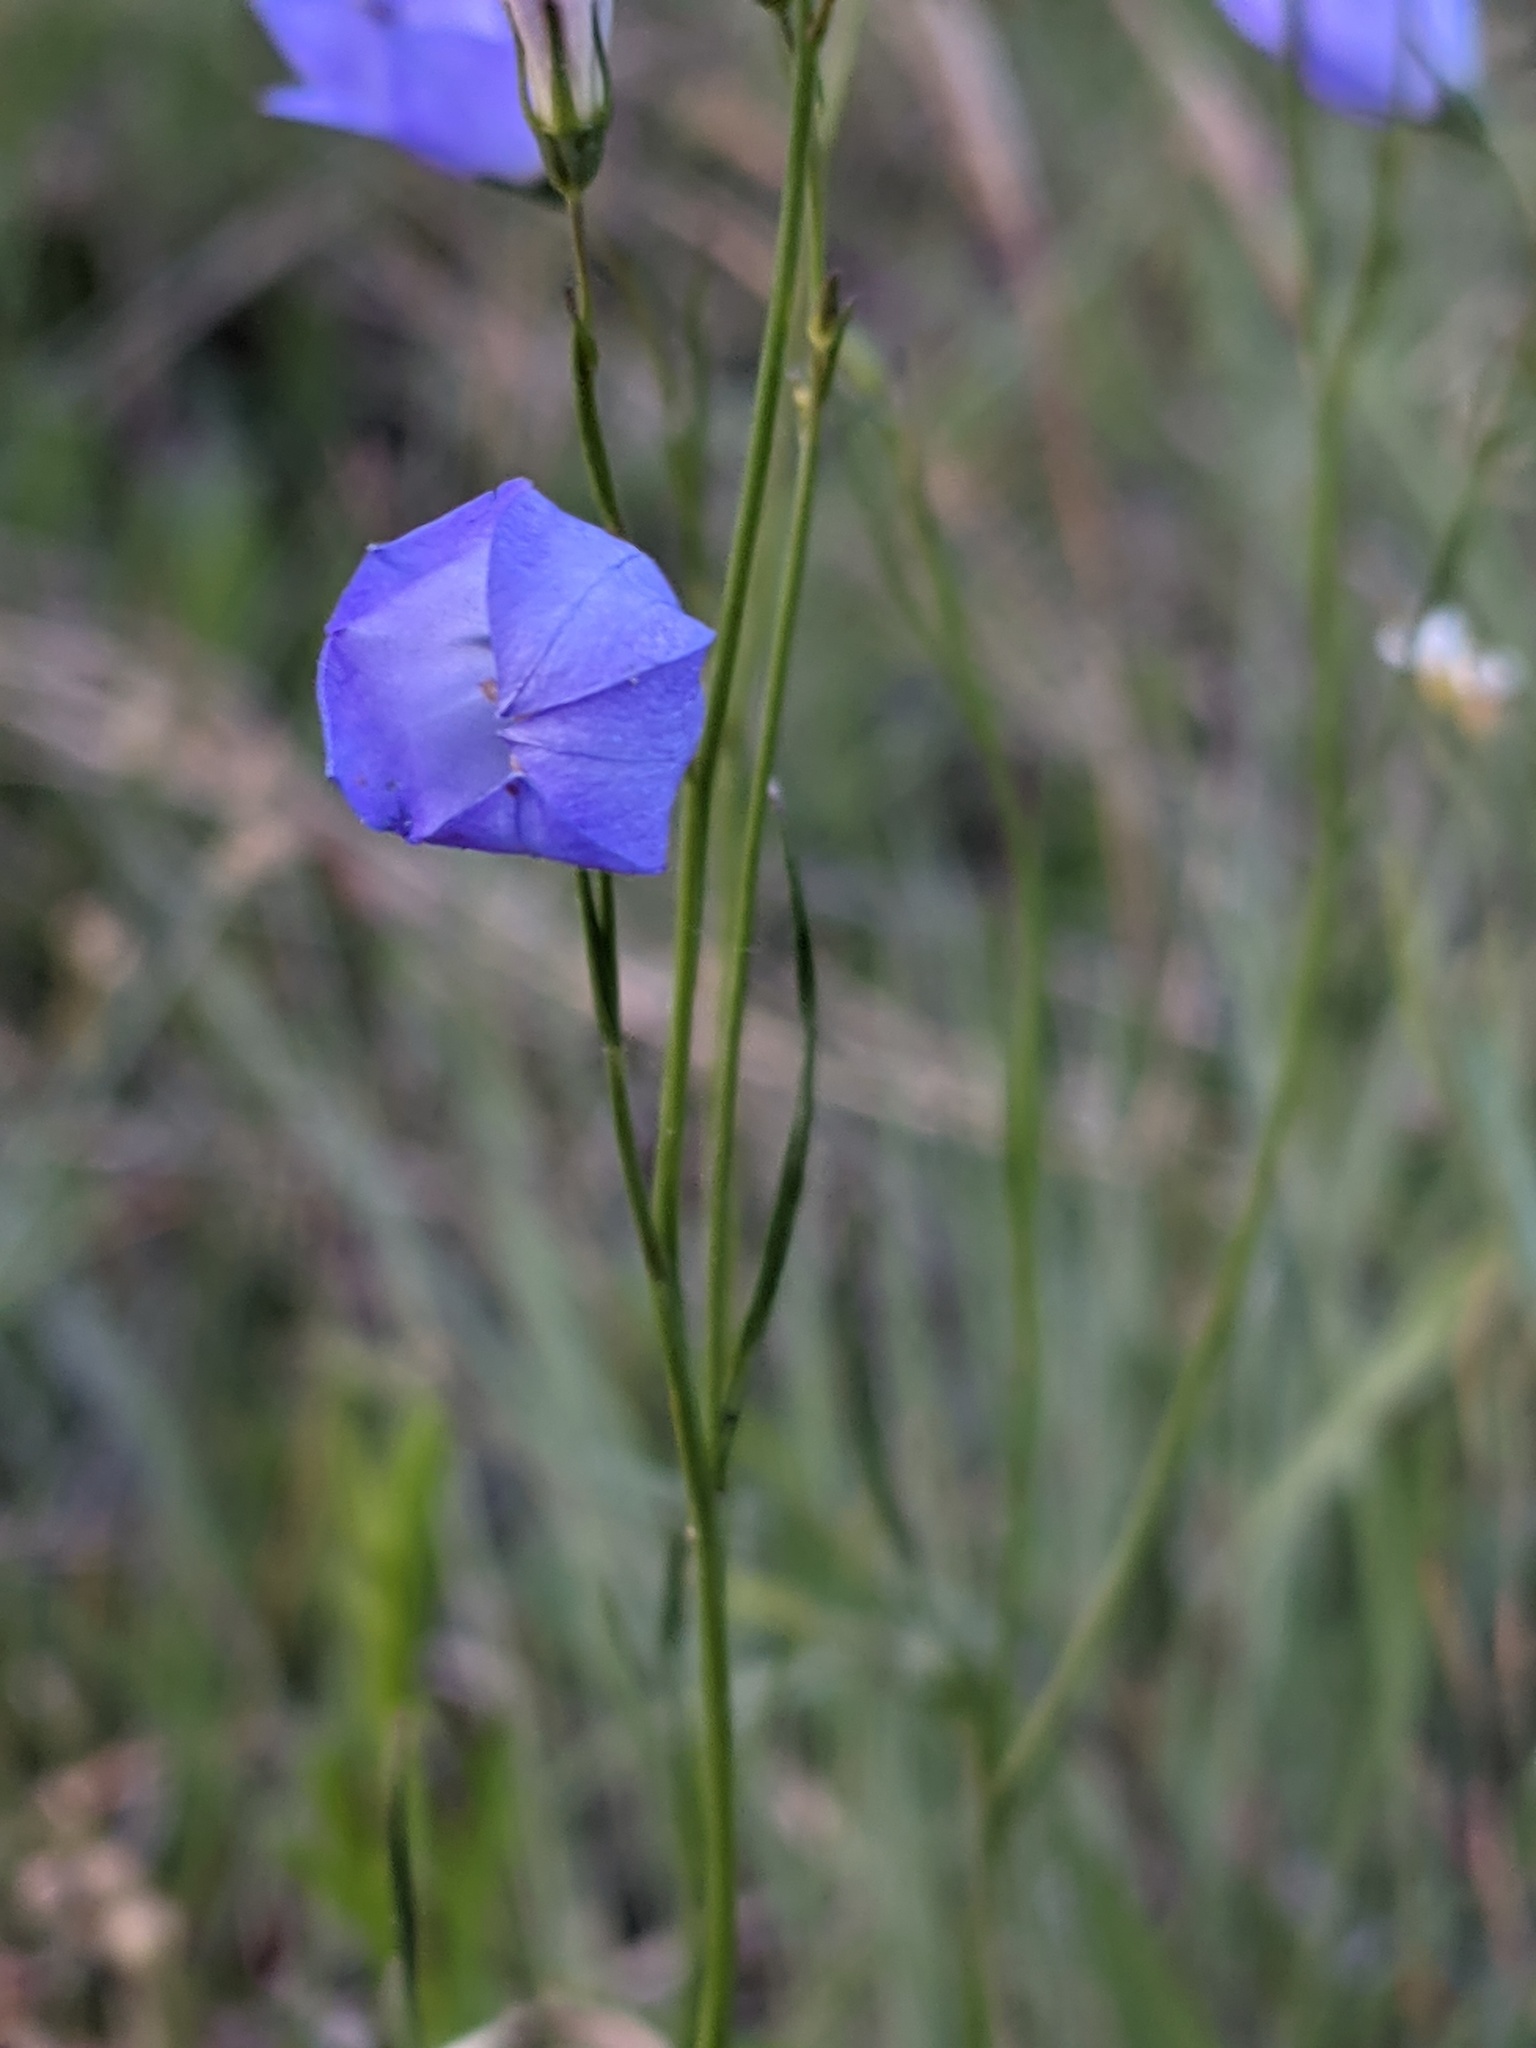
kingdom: Plantae
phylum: Tracheophyta
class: Magnoliopsida
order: Asterales
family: Campanulaceae
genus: Campanula
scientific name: Campanula intercedens
